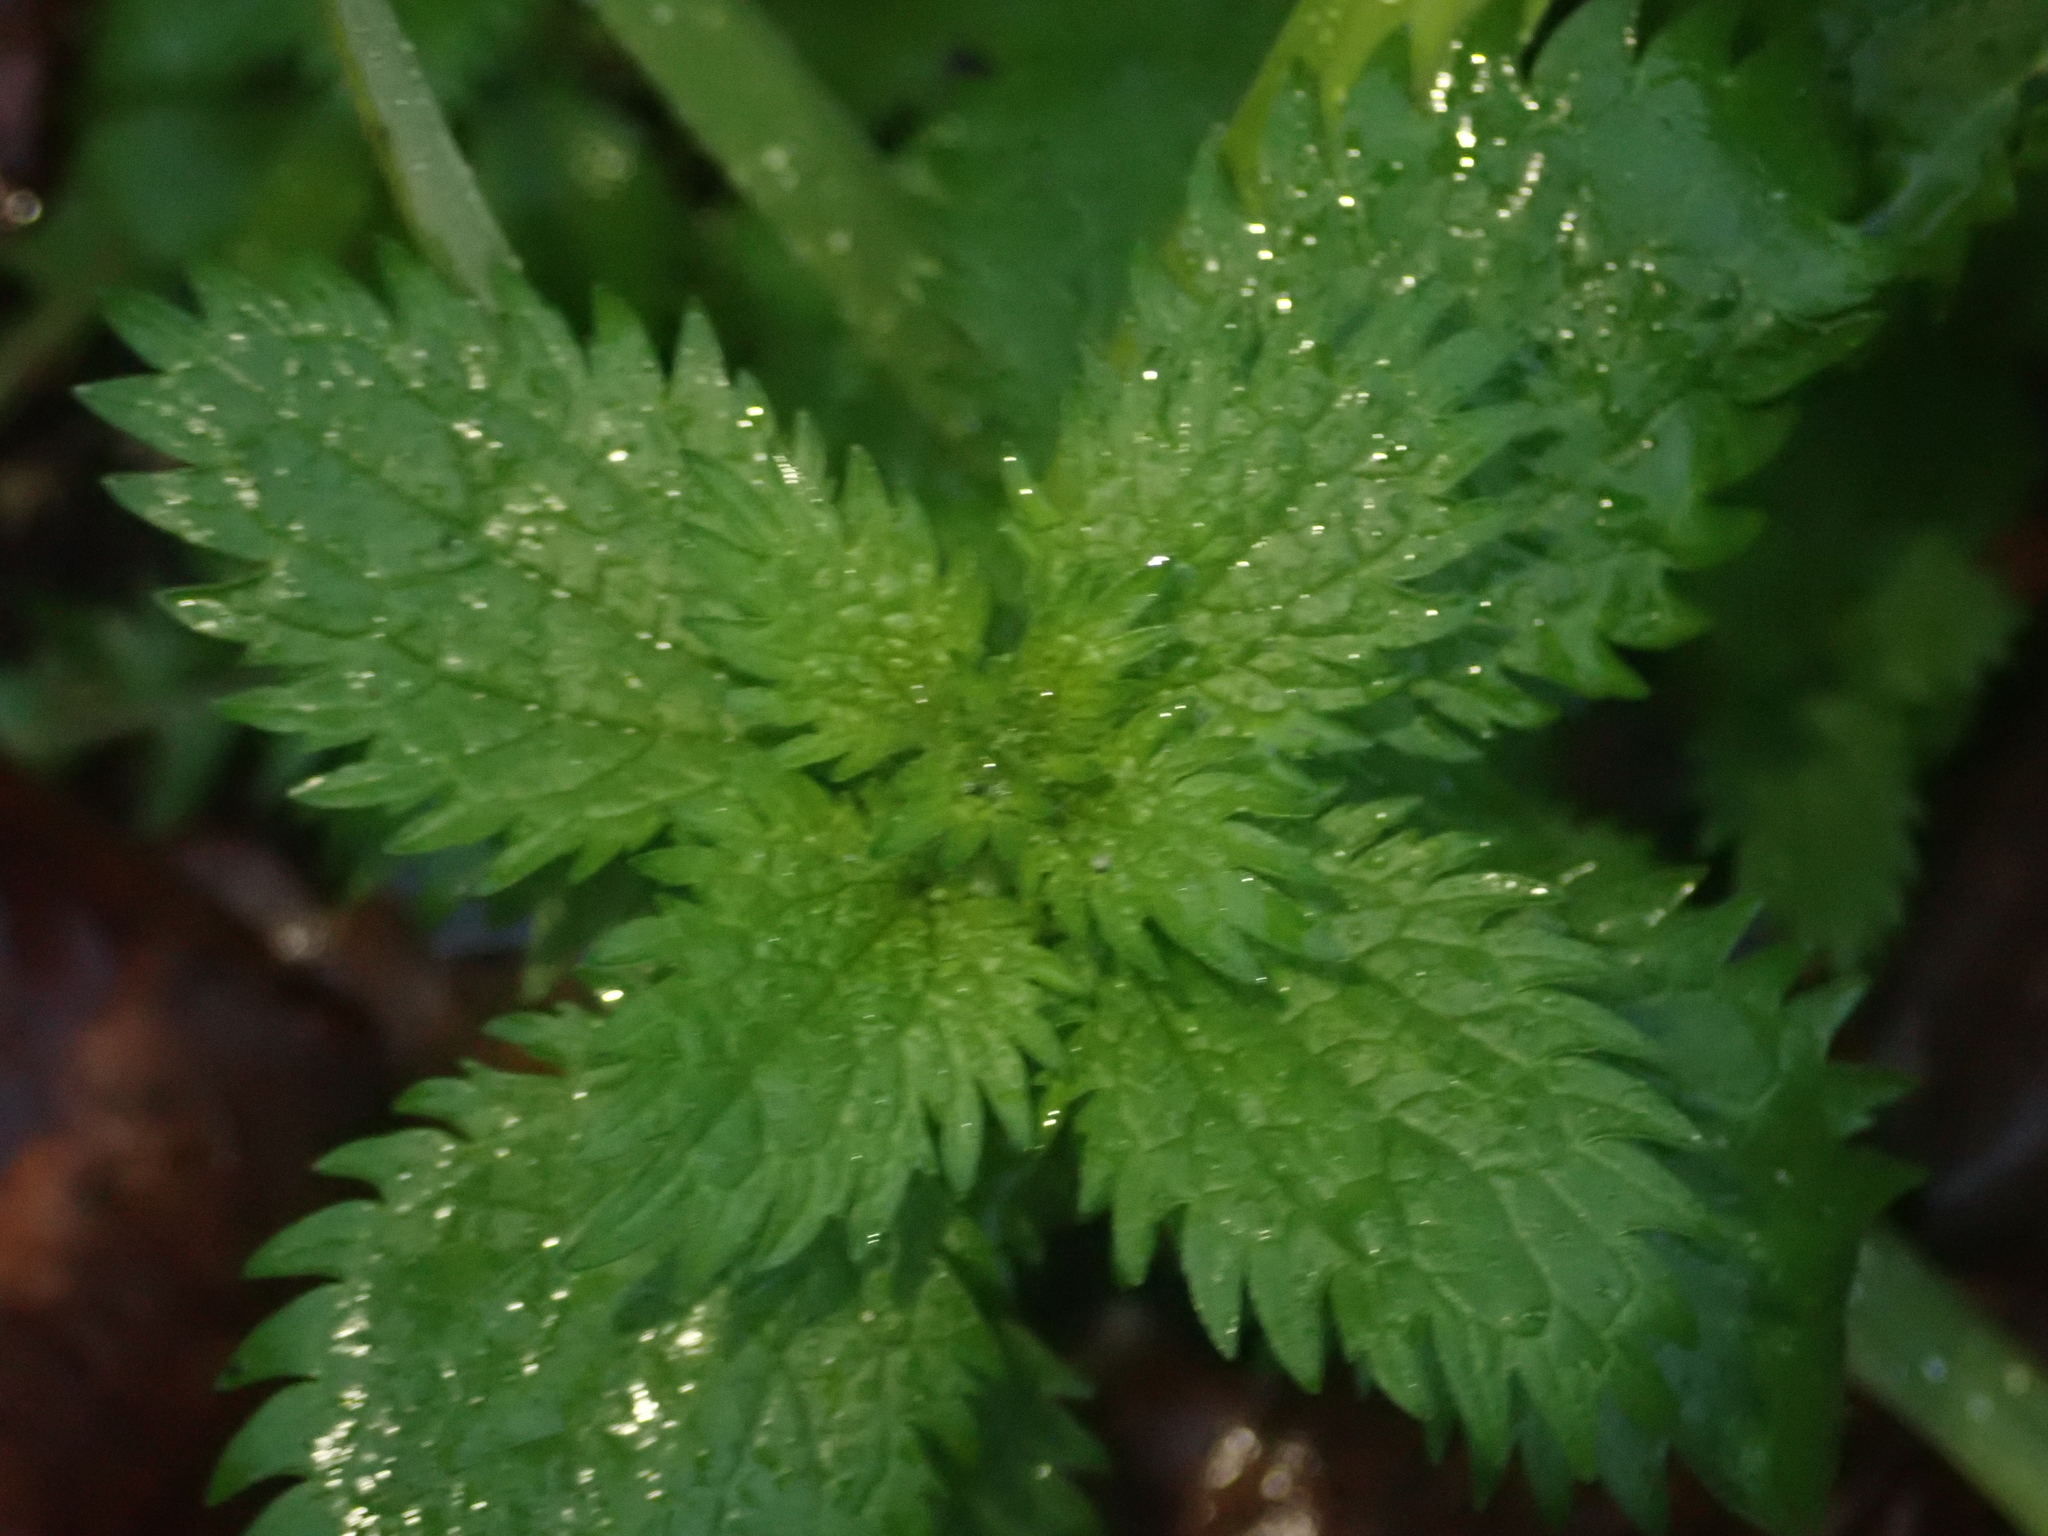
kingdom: Plantae
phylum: Tracheophyta
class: Magnoliopsida
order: Rosales
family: Urticaceae
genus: Urtica
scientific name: Urtica urens
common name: Dwarf nettle
